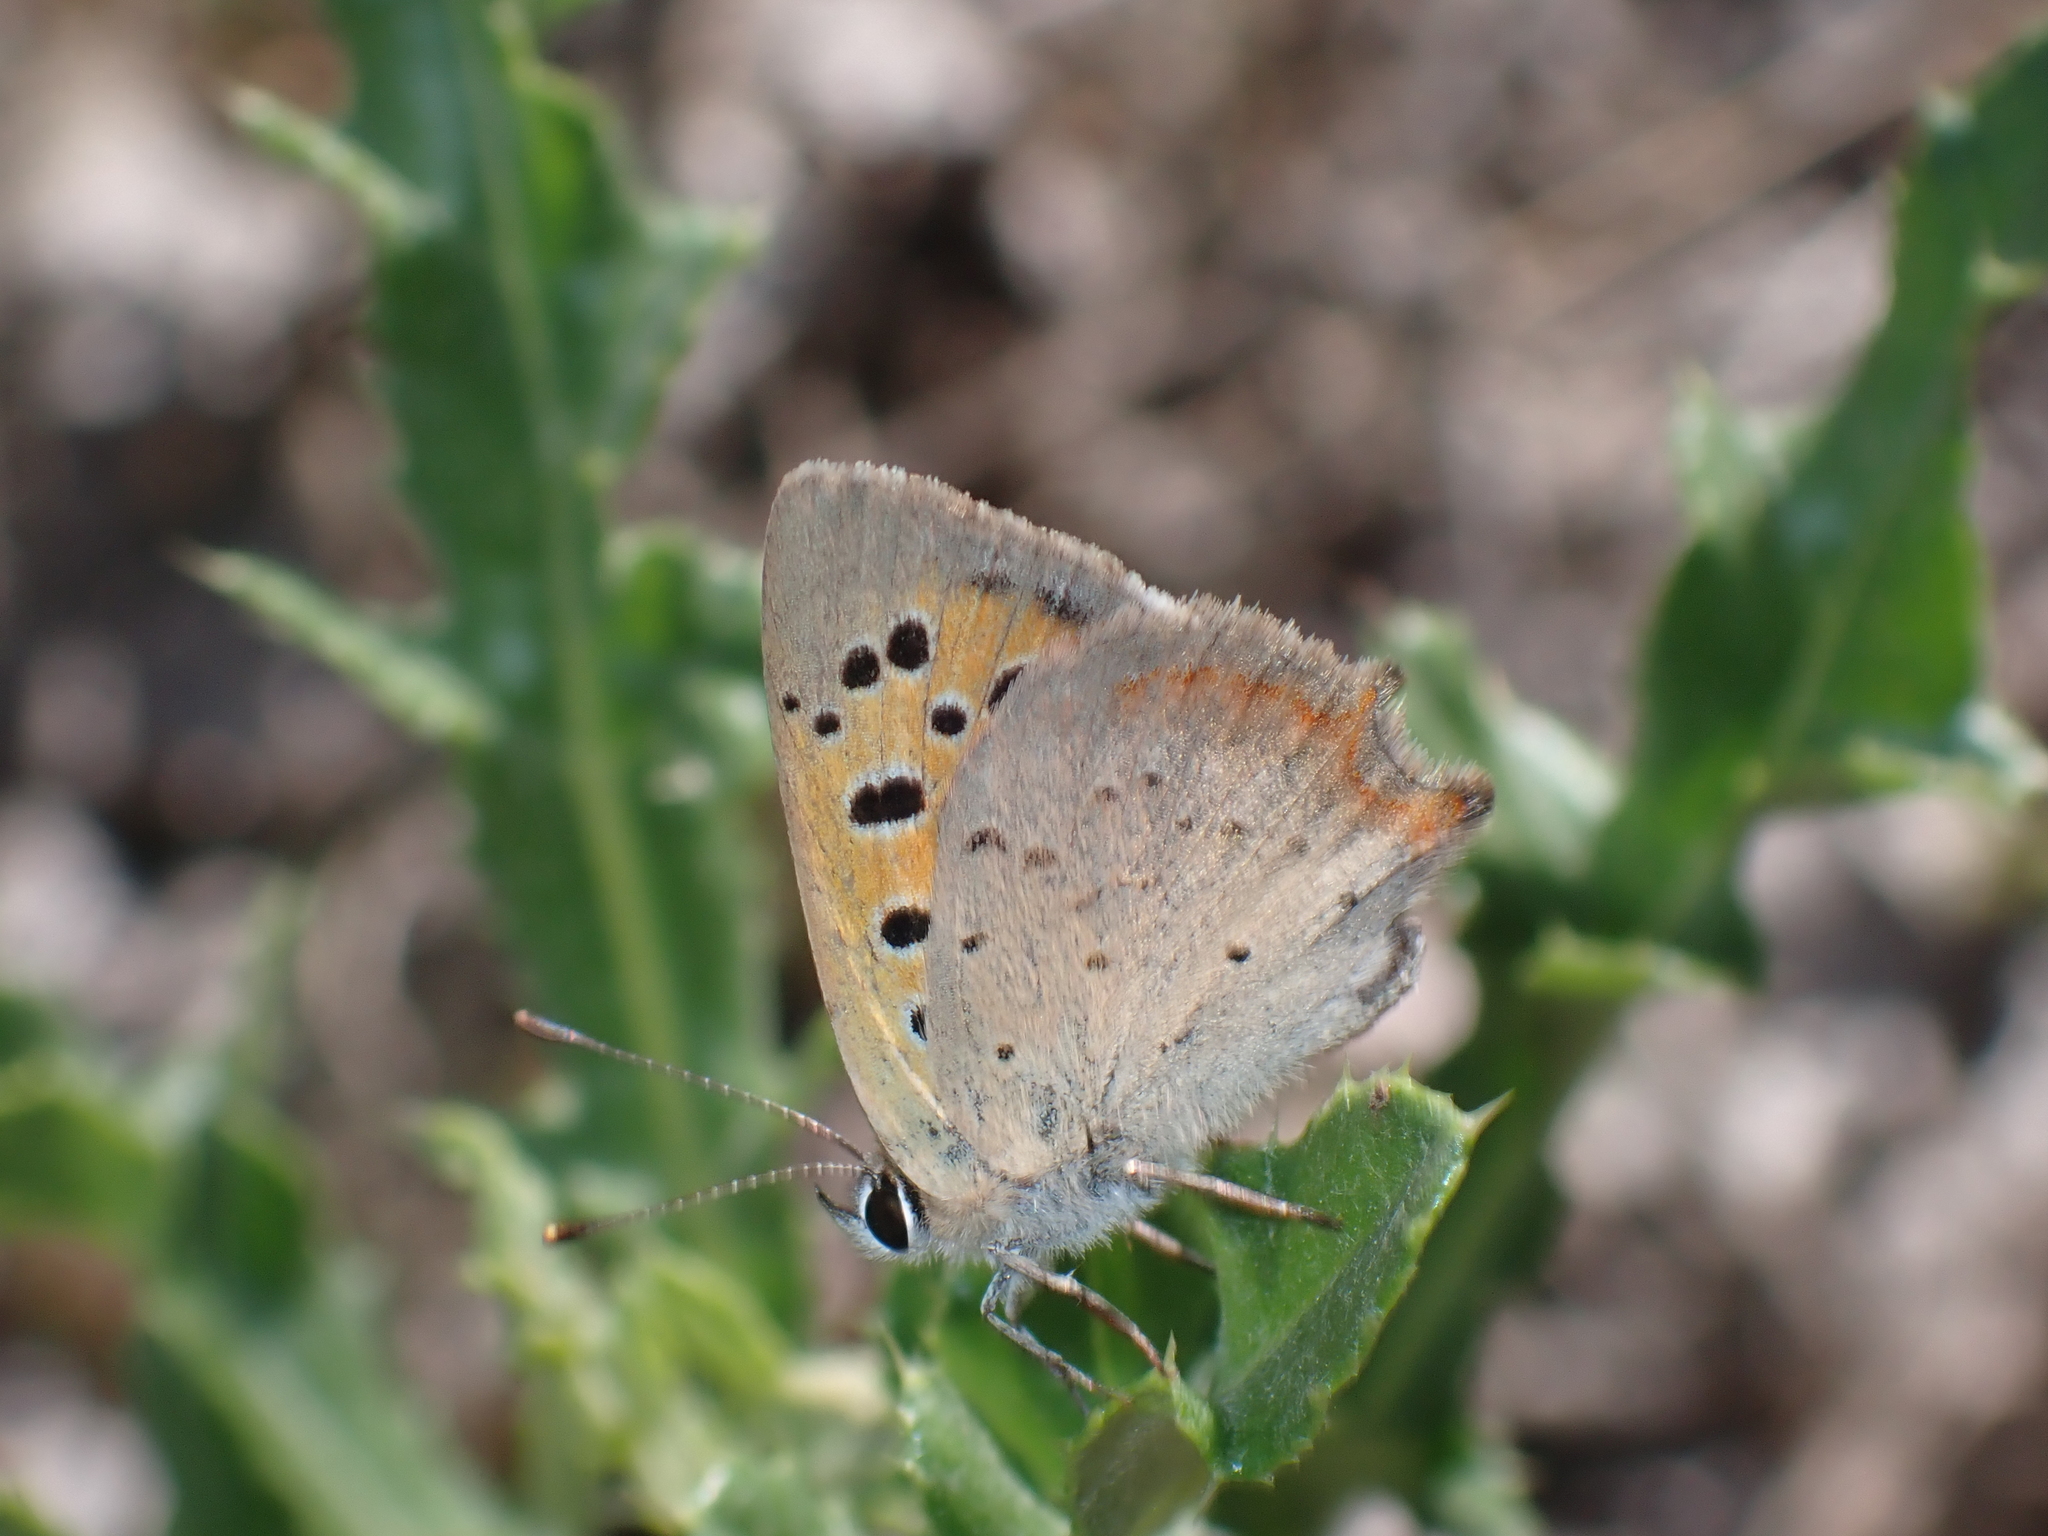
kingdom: Animalia
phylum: Arthropoda
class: Insecta
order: Lepidoptera
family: Lycaenidae
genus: Lycaena
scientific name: Lycaena phlaeas
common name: Small copper
